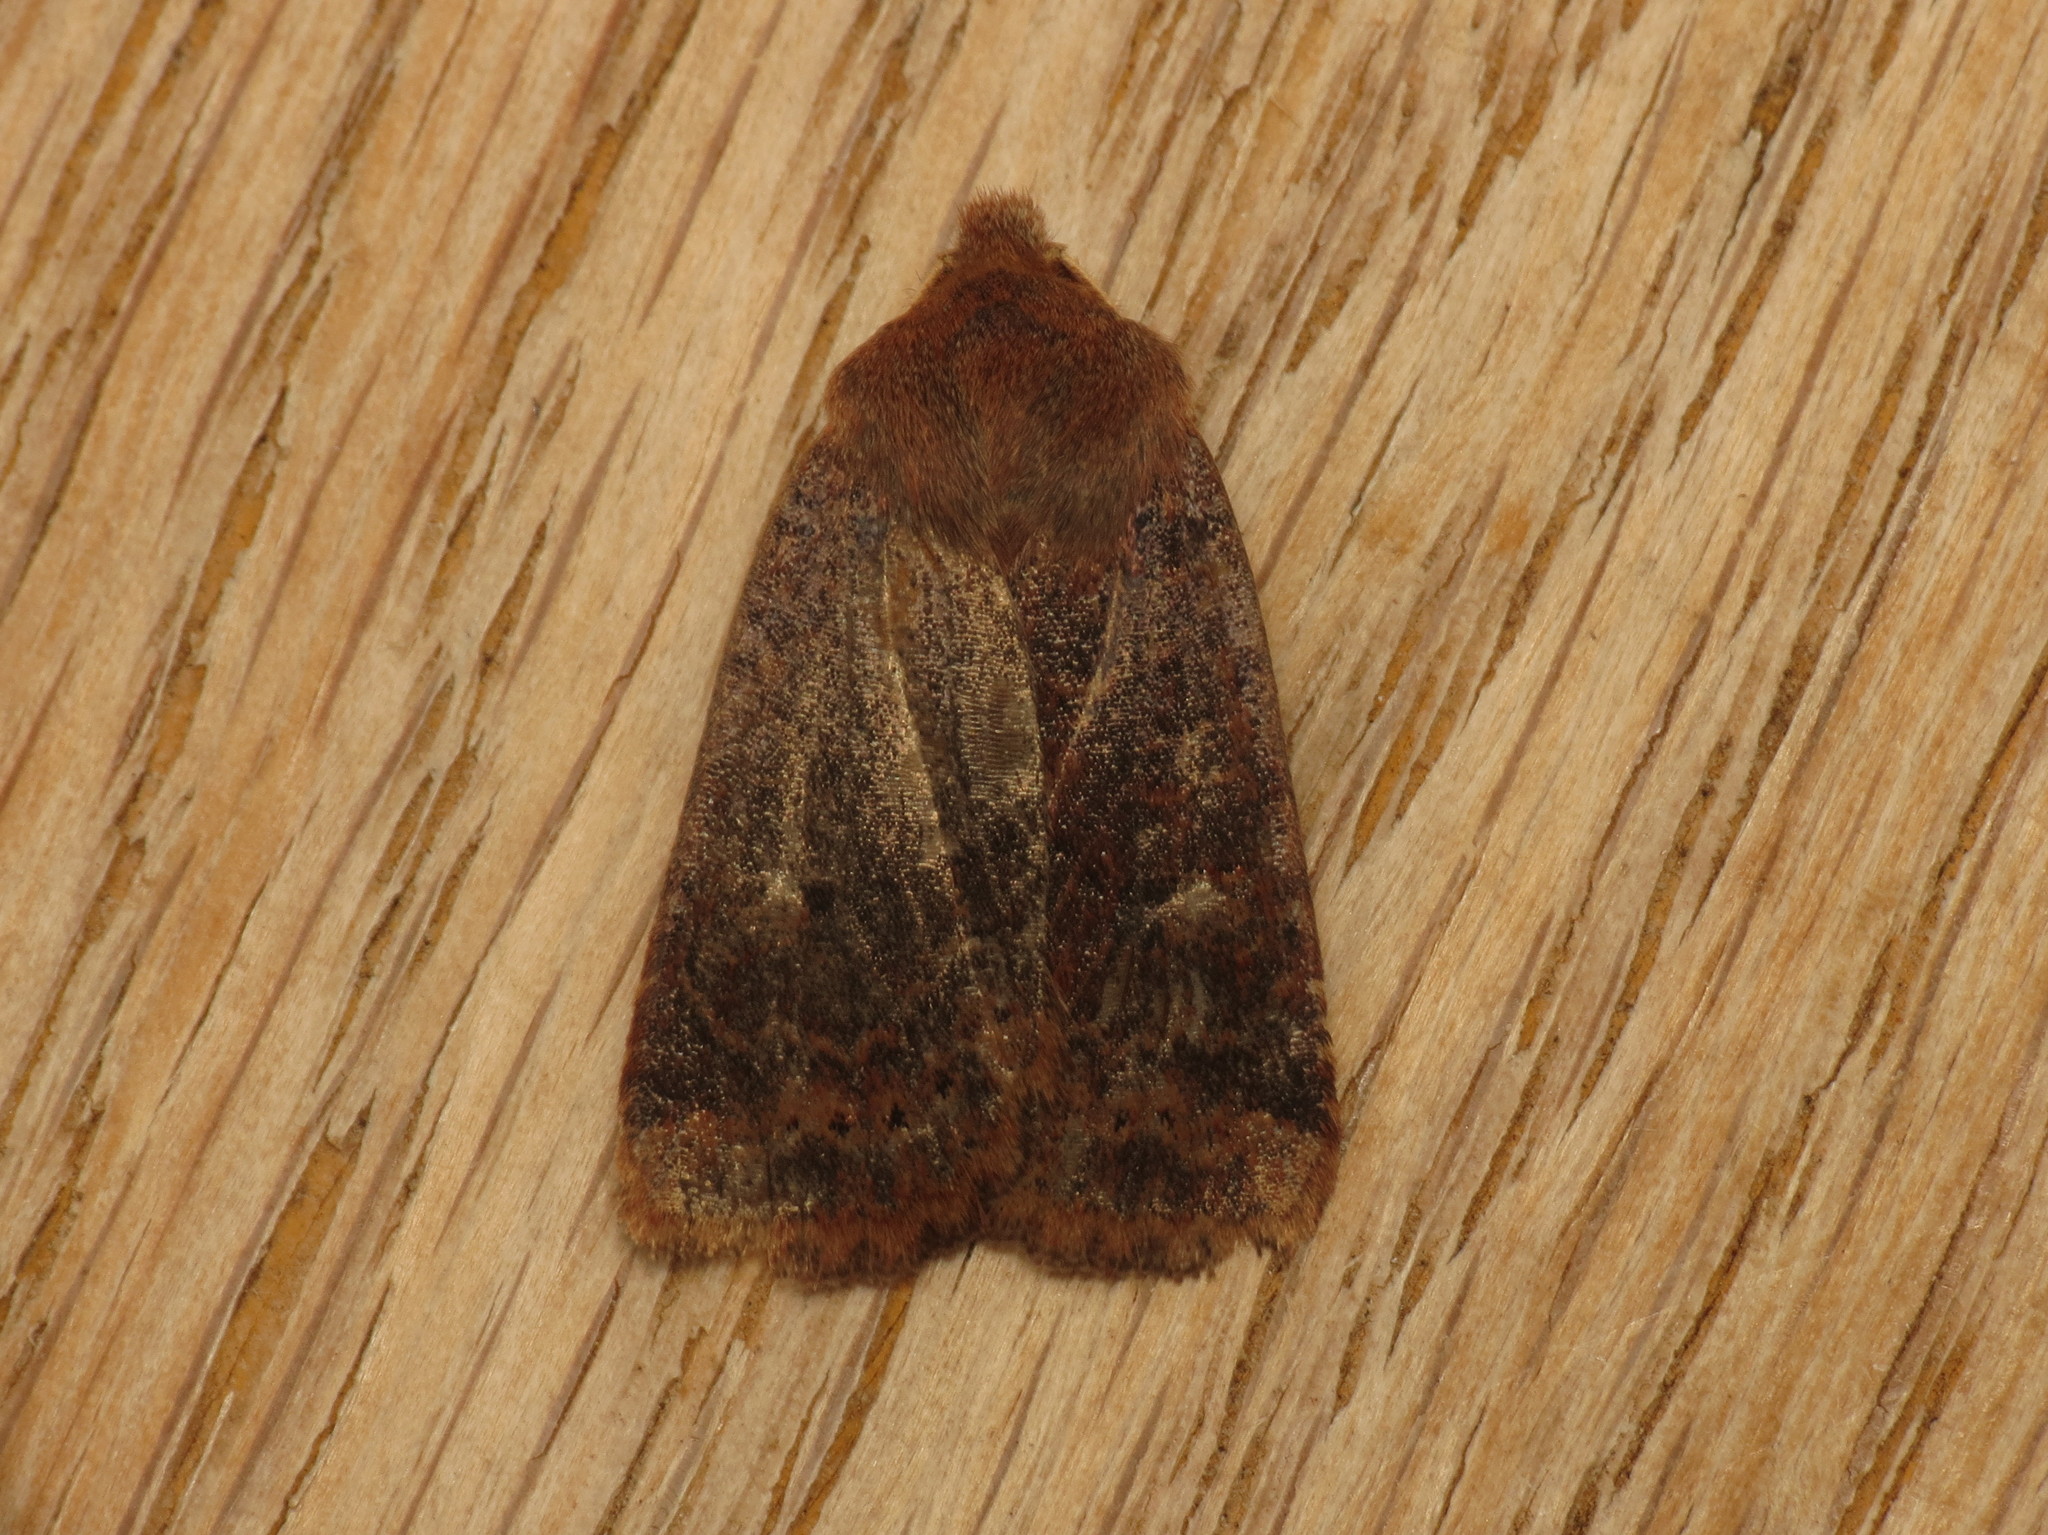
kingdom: Animalia
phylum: Arthropoda
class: Insecta
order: Lepidoptera
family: Noctuidae
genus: Conistra
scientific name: Conistra vaccinii
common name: Chestnut
